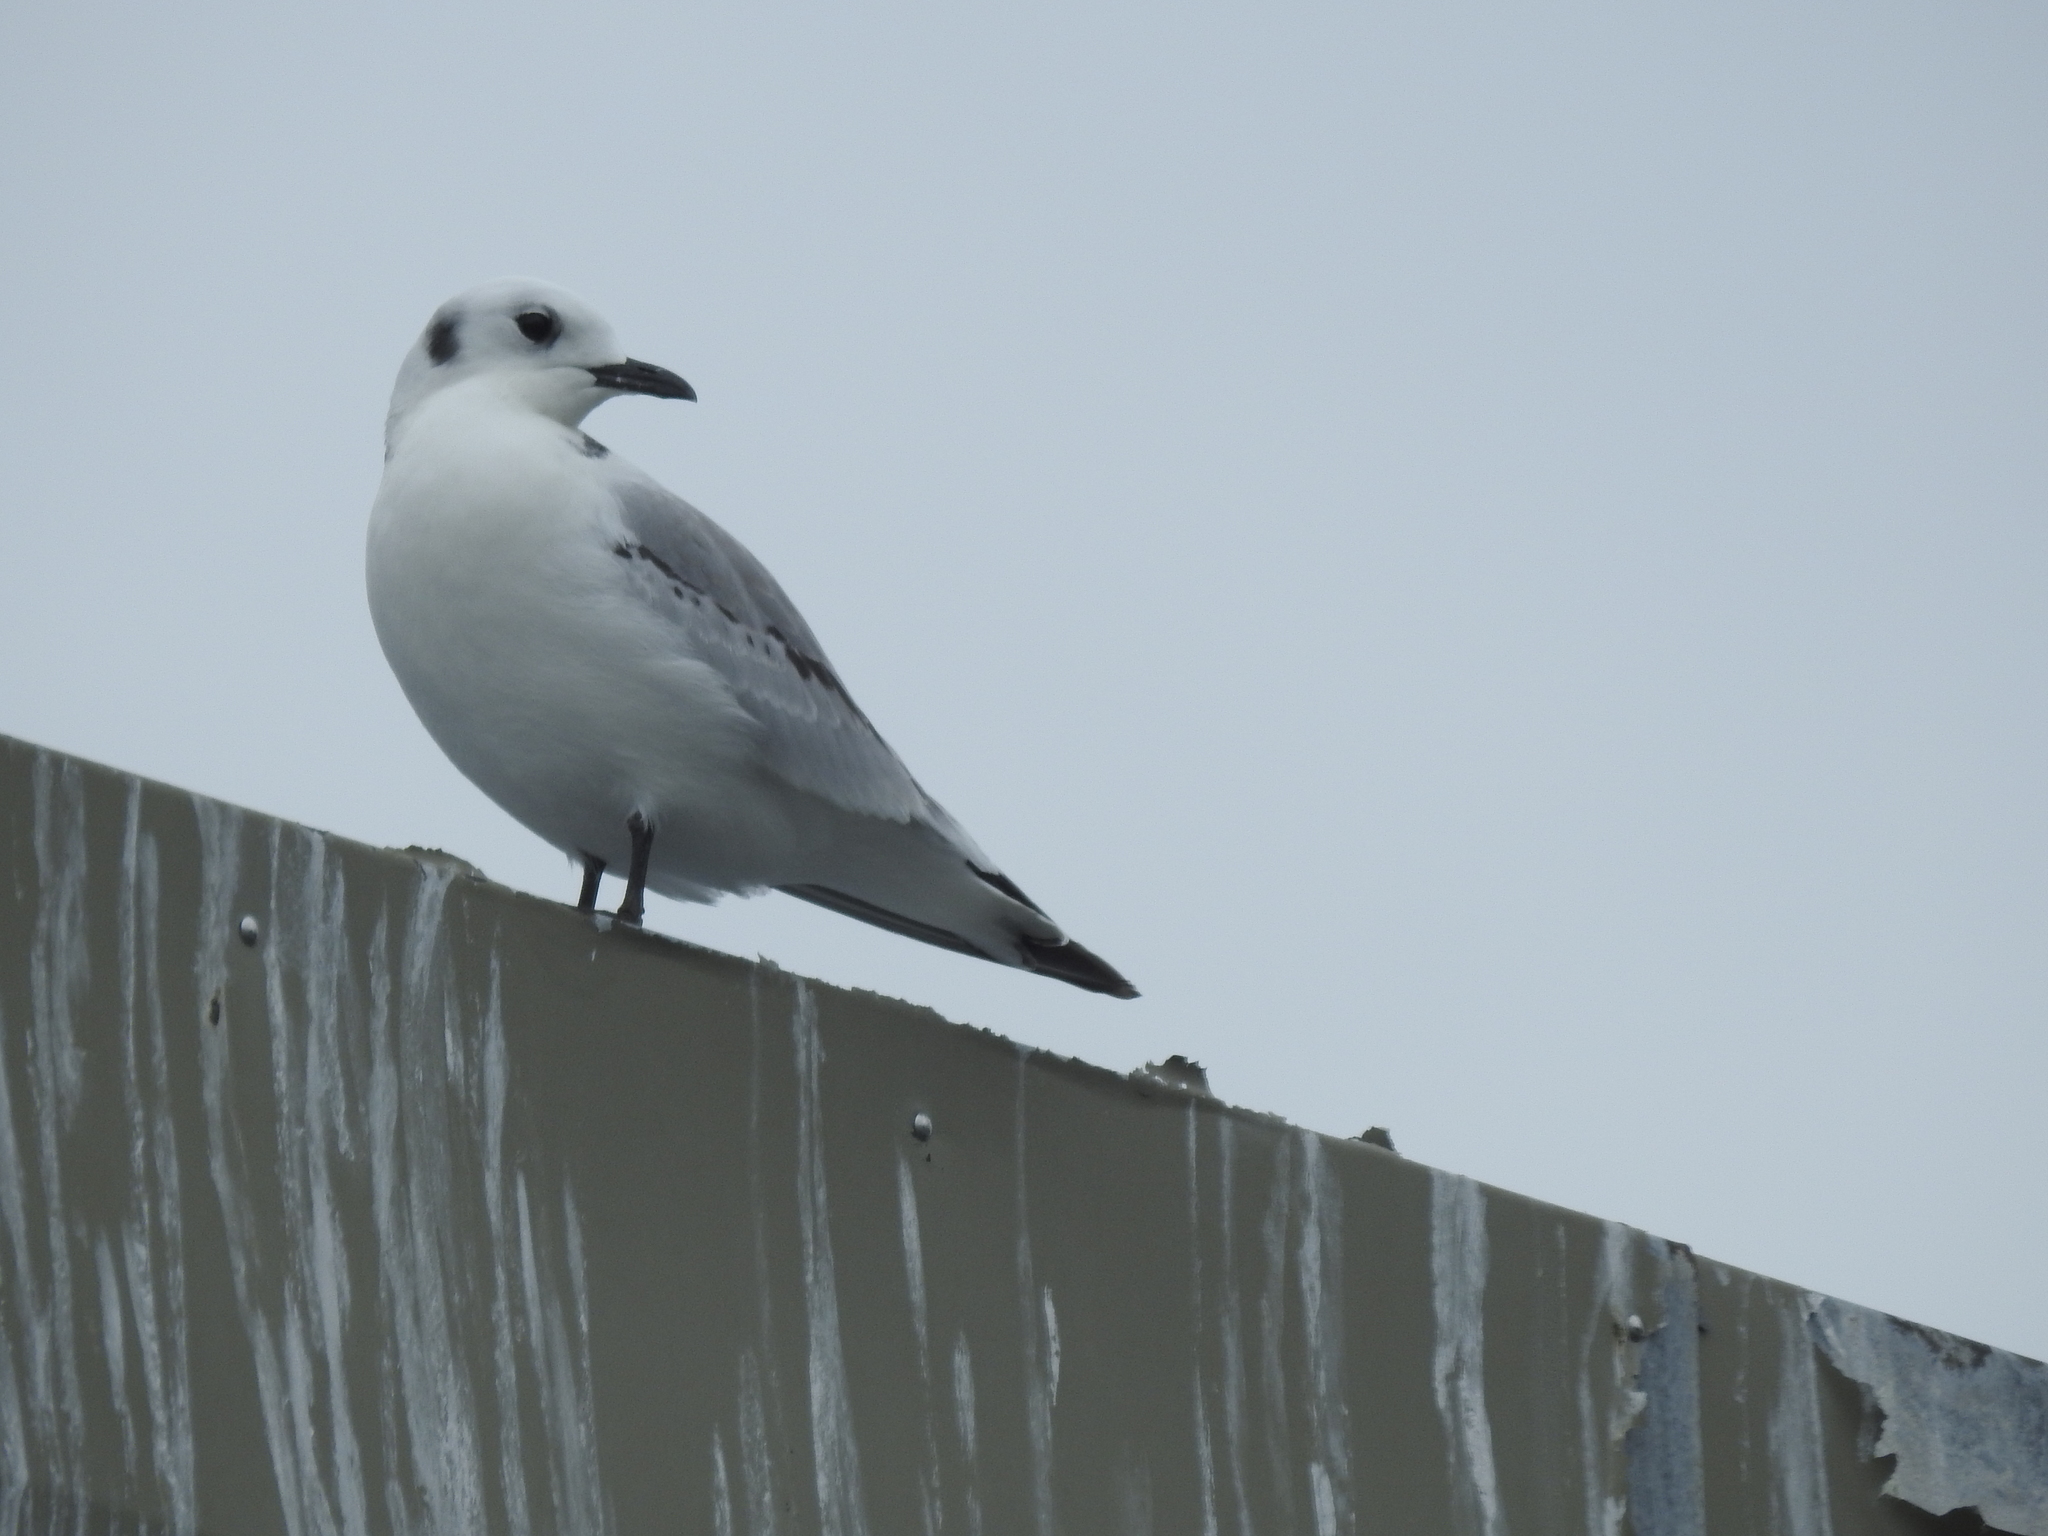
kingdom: Animalia
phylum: Chordata
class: Aves
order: Charadriiformes
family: Laridae
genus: Rissa
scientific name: Rissa tridactyla
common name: Black-legged kittiwake
